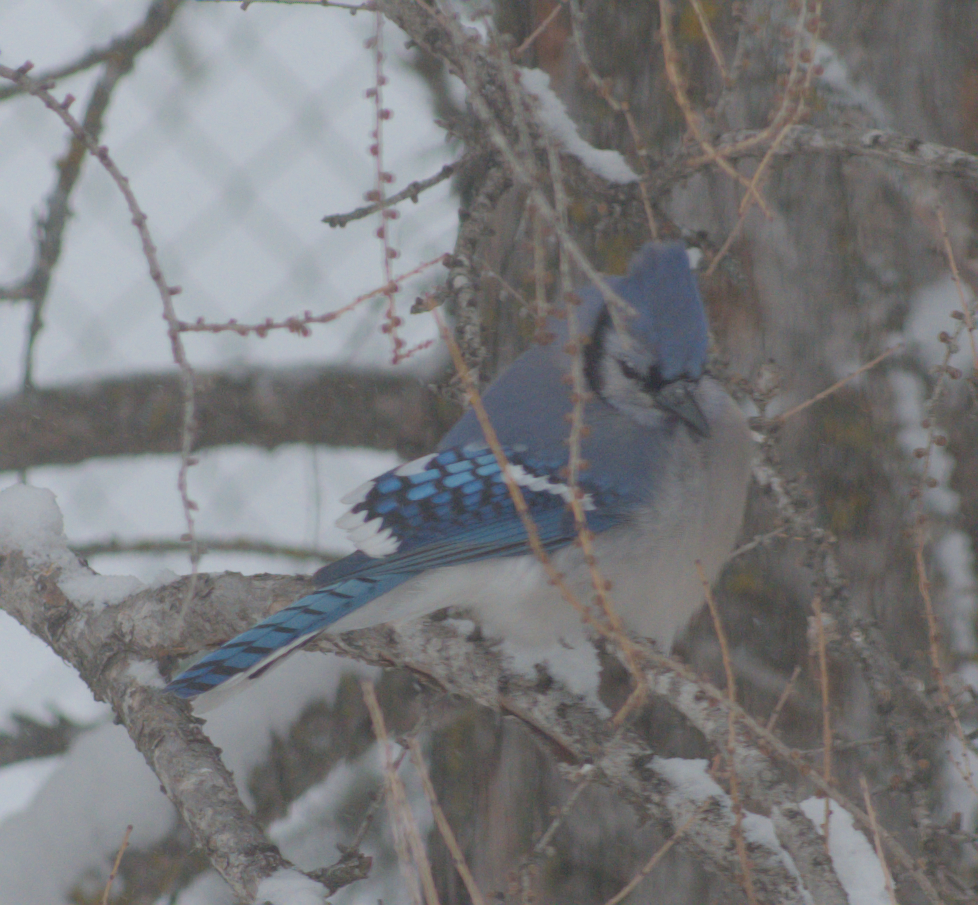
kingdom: Animalia
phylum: Chordata
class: Aves
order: Passeriformes
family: Corvidae
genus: Cyanocitta
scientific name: Cyanocitta cristata
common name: Blue jay
